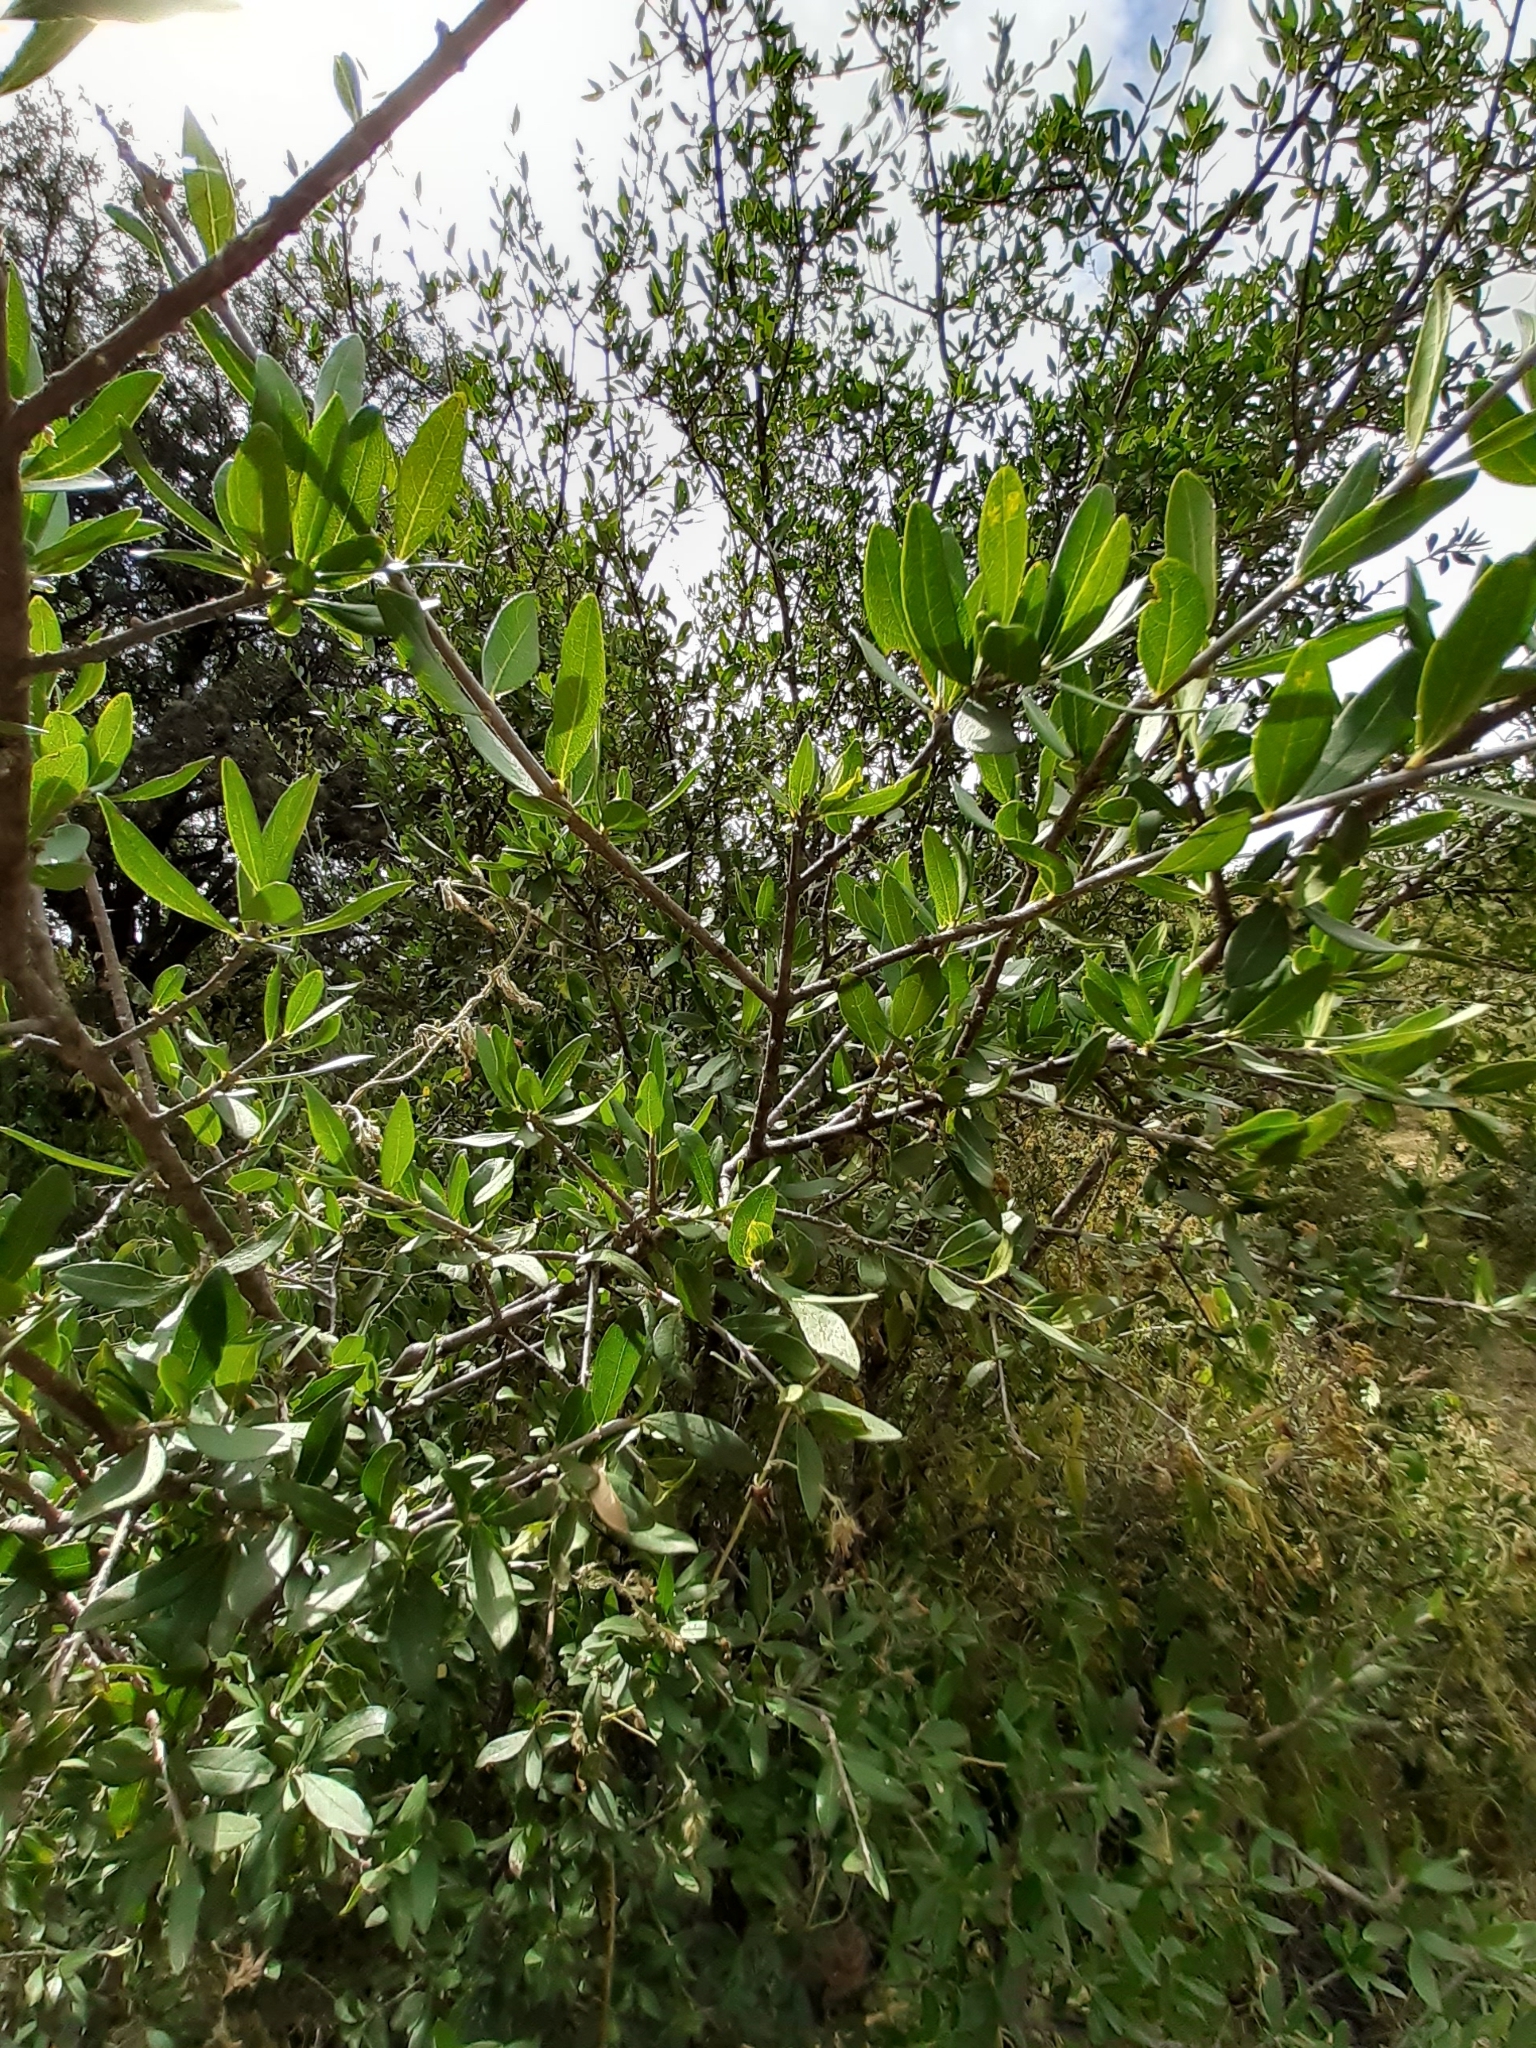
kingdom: Plantae
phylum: Tracheophyta
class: Magnoliopsida
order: Lamiales
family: Oleaceae
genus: Forestiera
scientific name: Forestiera phillyreoides
